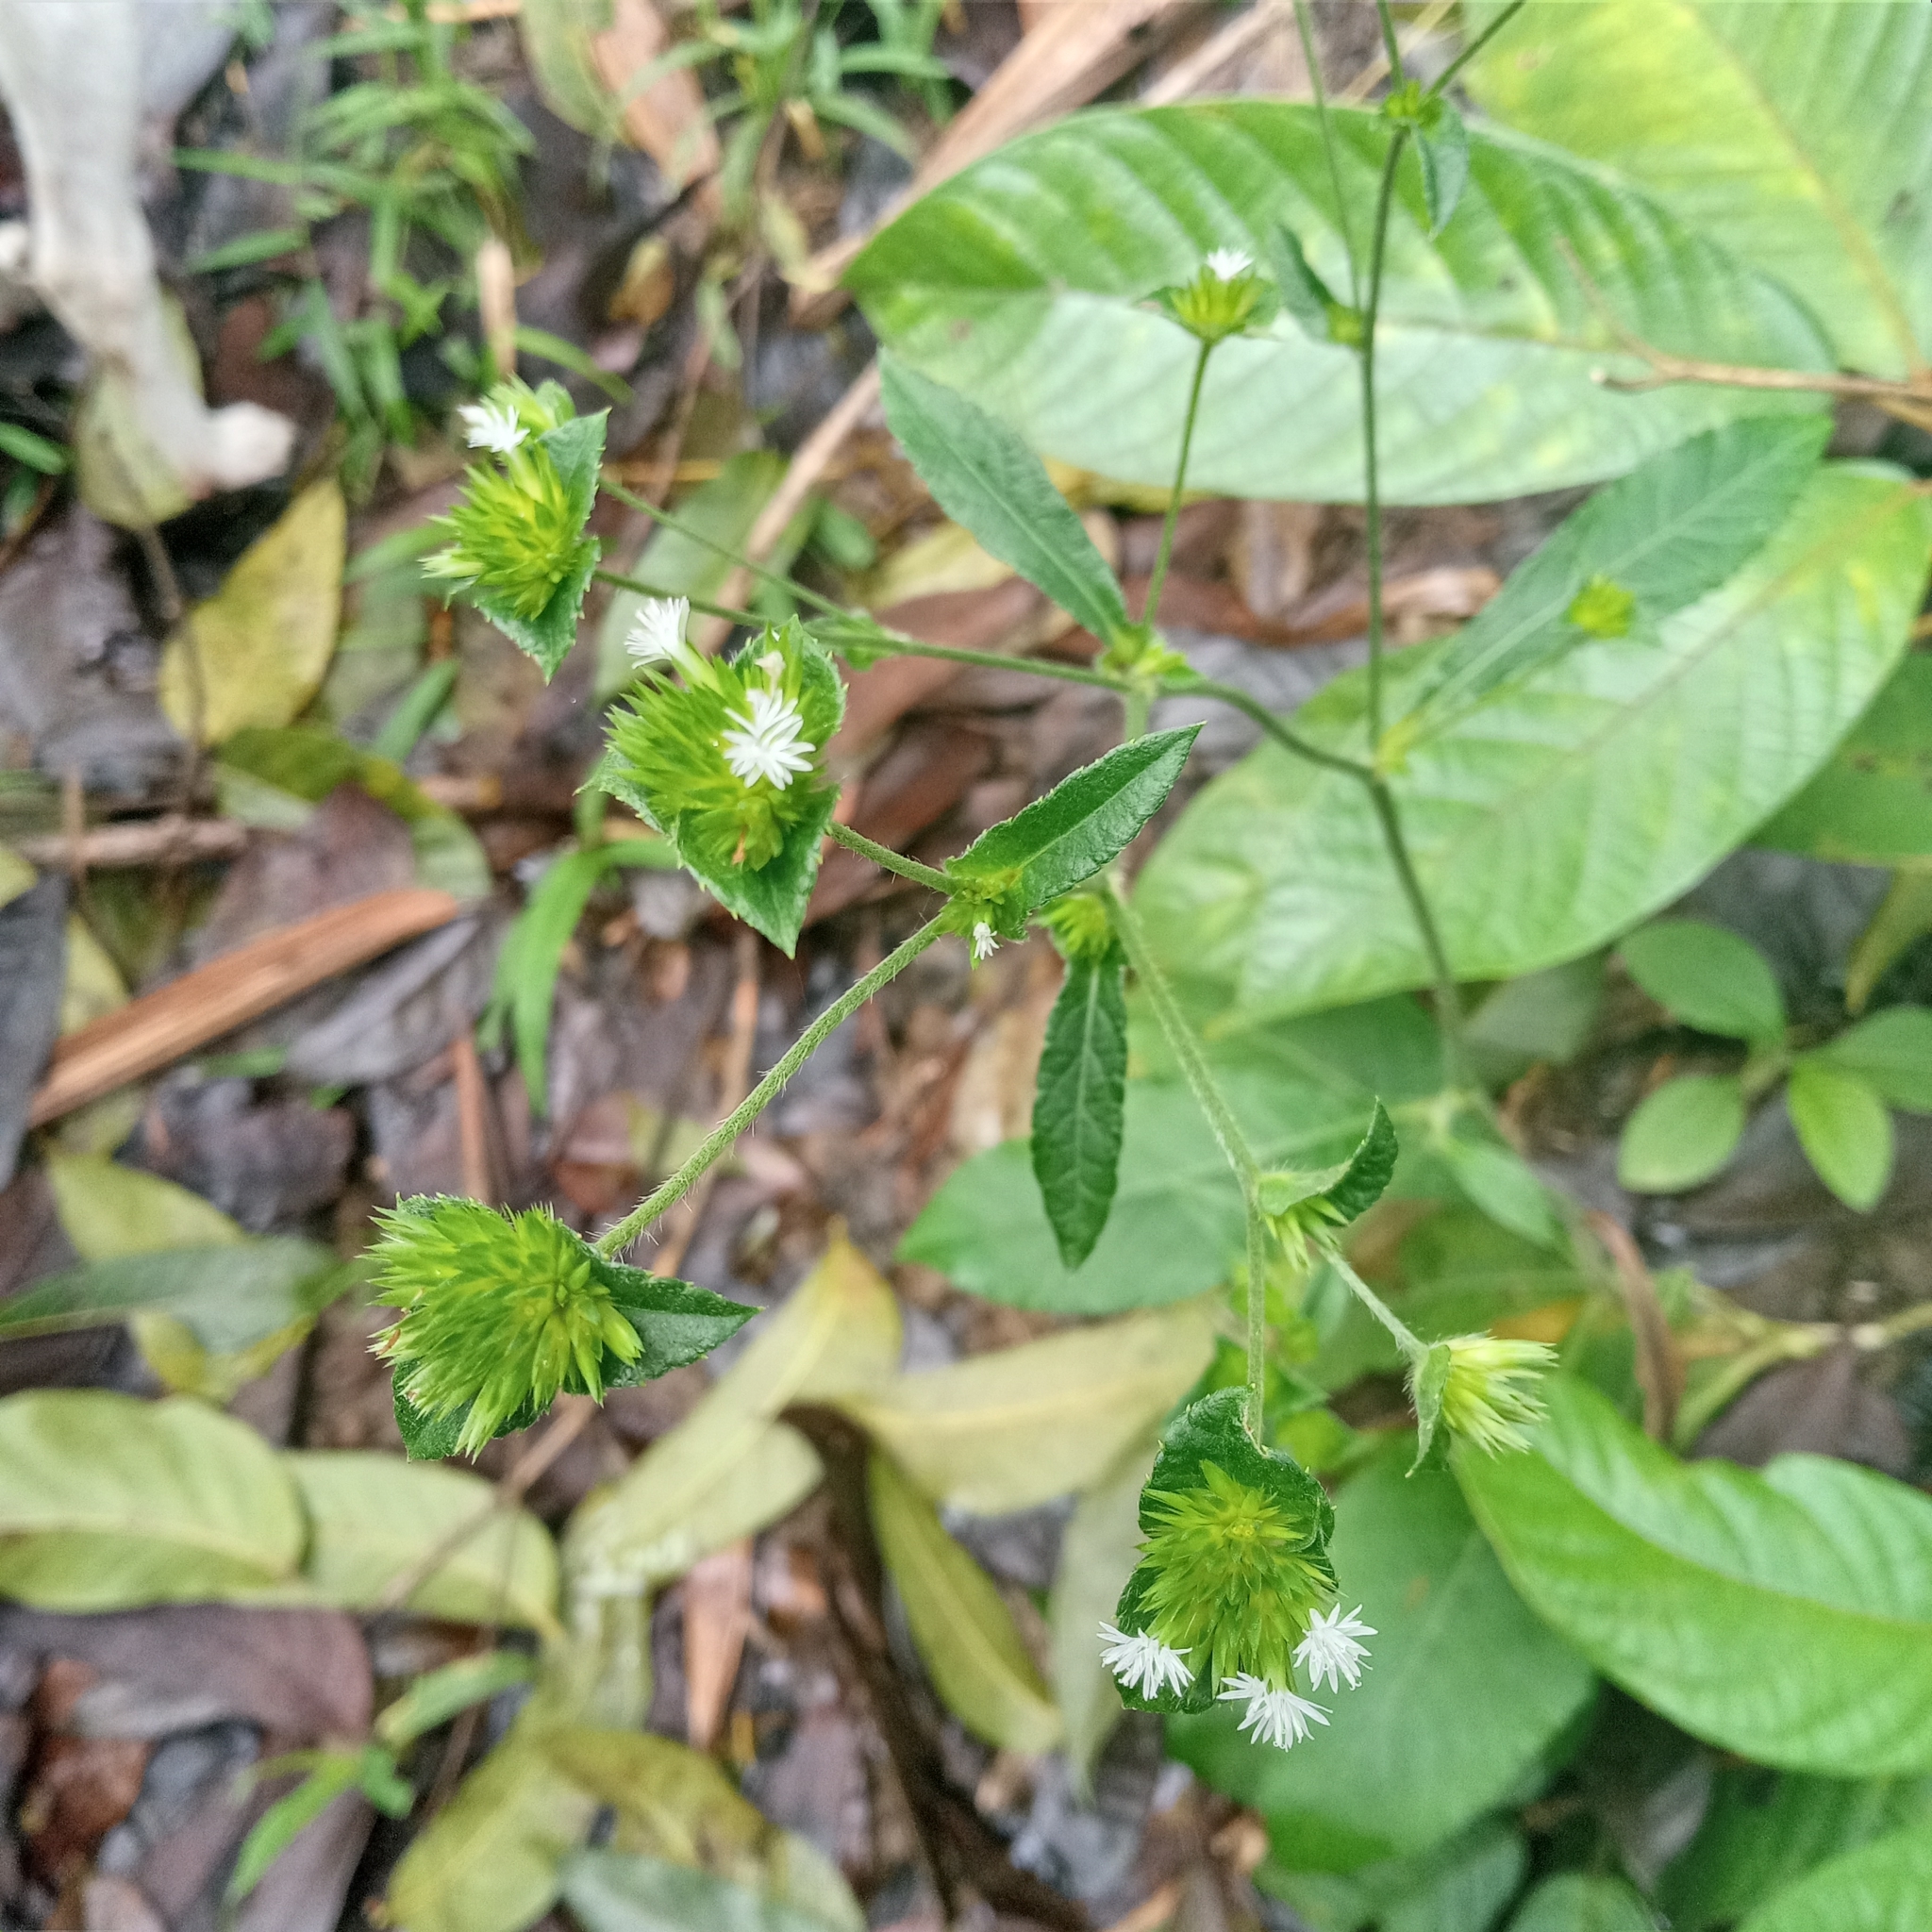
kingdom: Plantae
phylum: Tracheophyta
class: Magnoliopsida
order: Asterales
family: Asteraceae
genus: Elephantopus
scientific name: Elephantopus mollis
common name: Soft elephantsfoot
